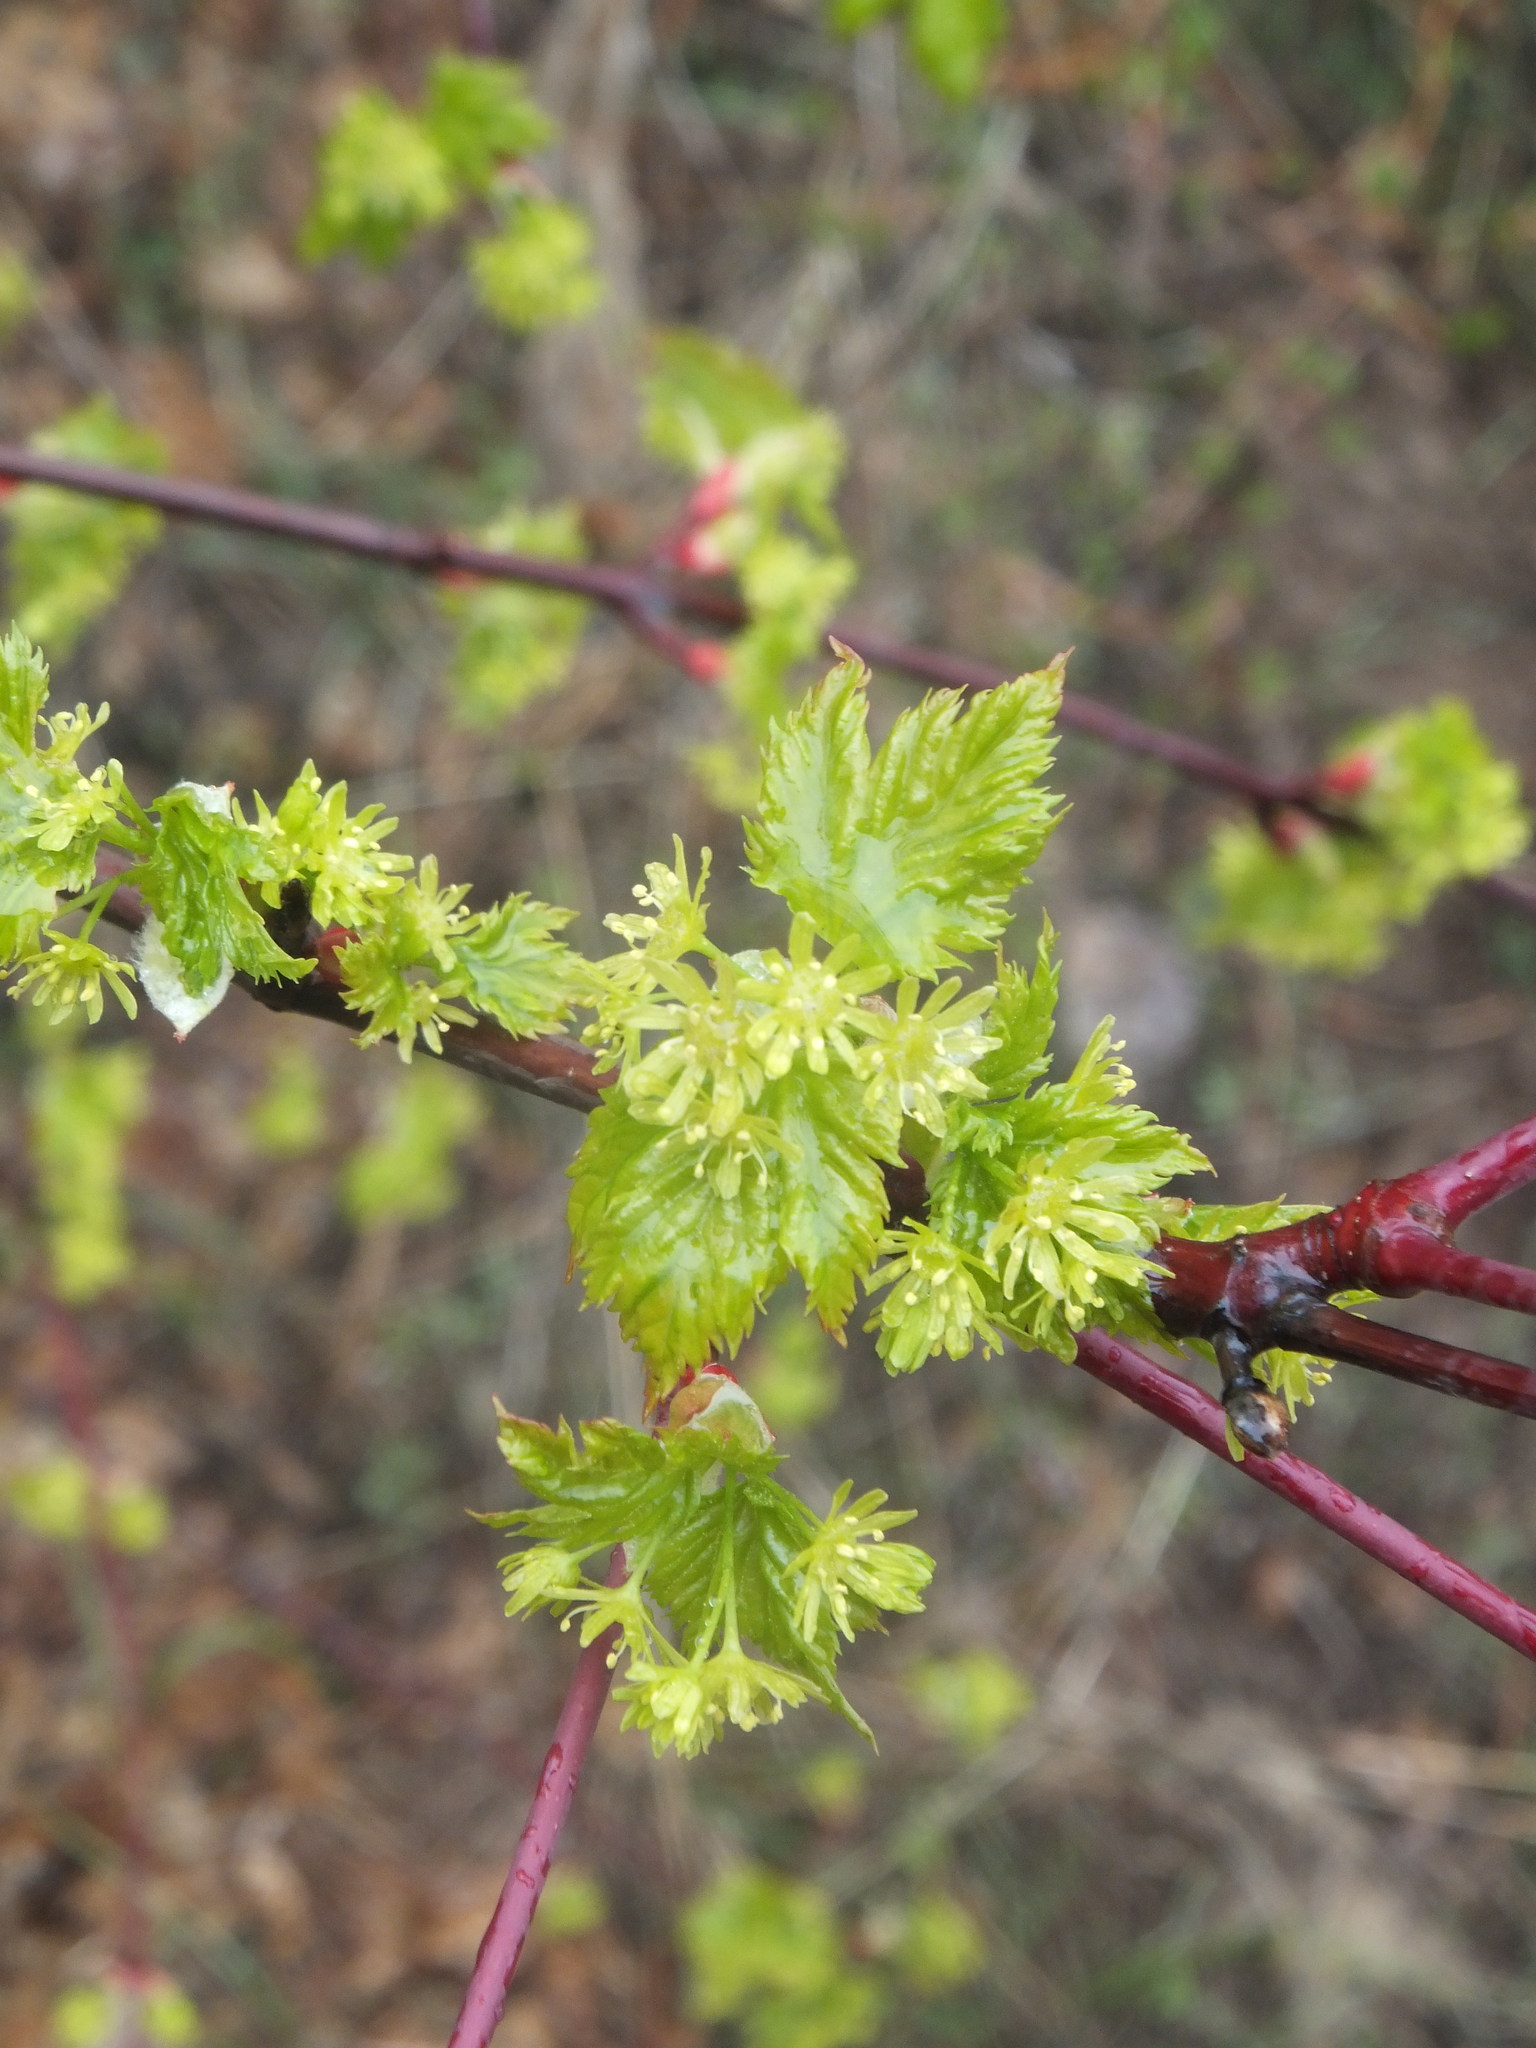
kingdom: Plantae
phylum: Tracheophyta
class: Magnoliopsida
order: Sapindales
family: Sapindaceae
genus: Acer
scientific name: Acer glabrum
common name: Rocky mountain maple
